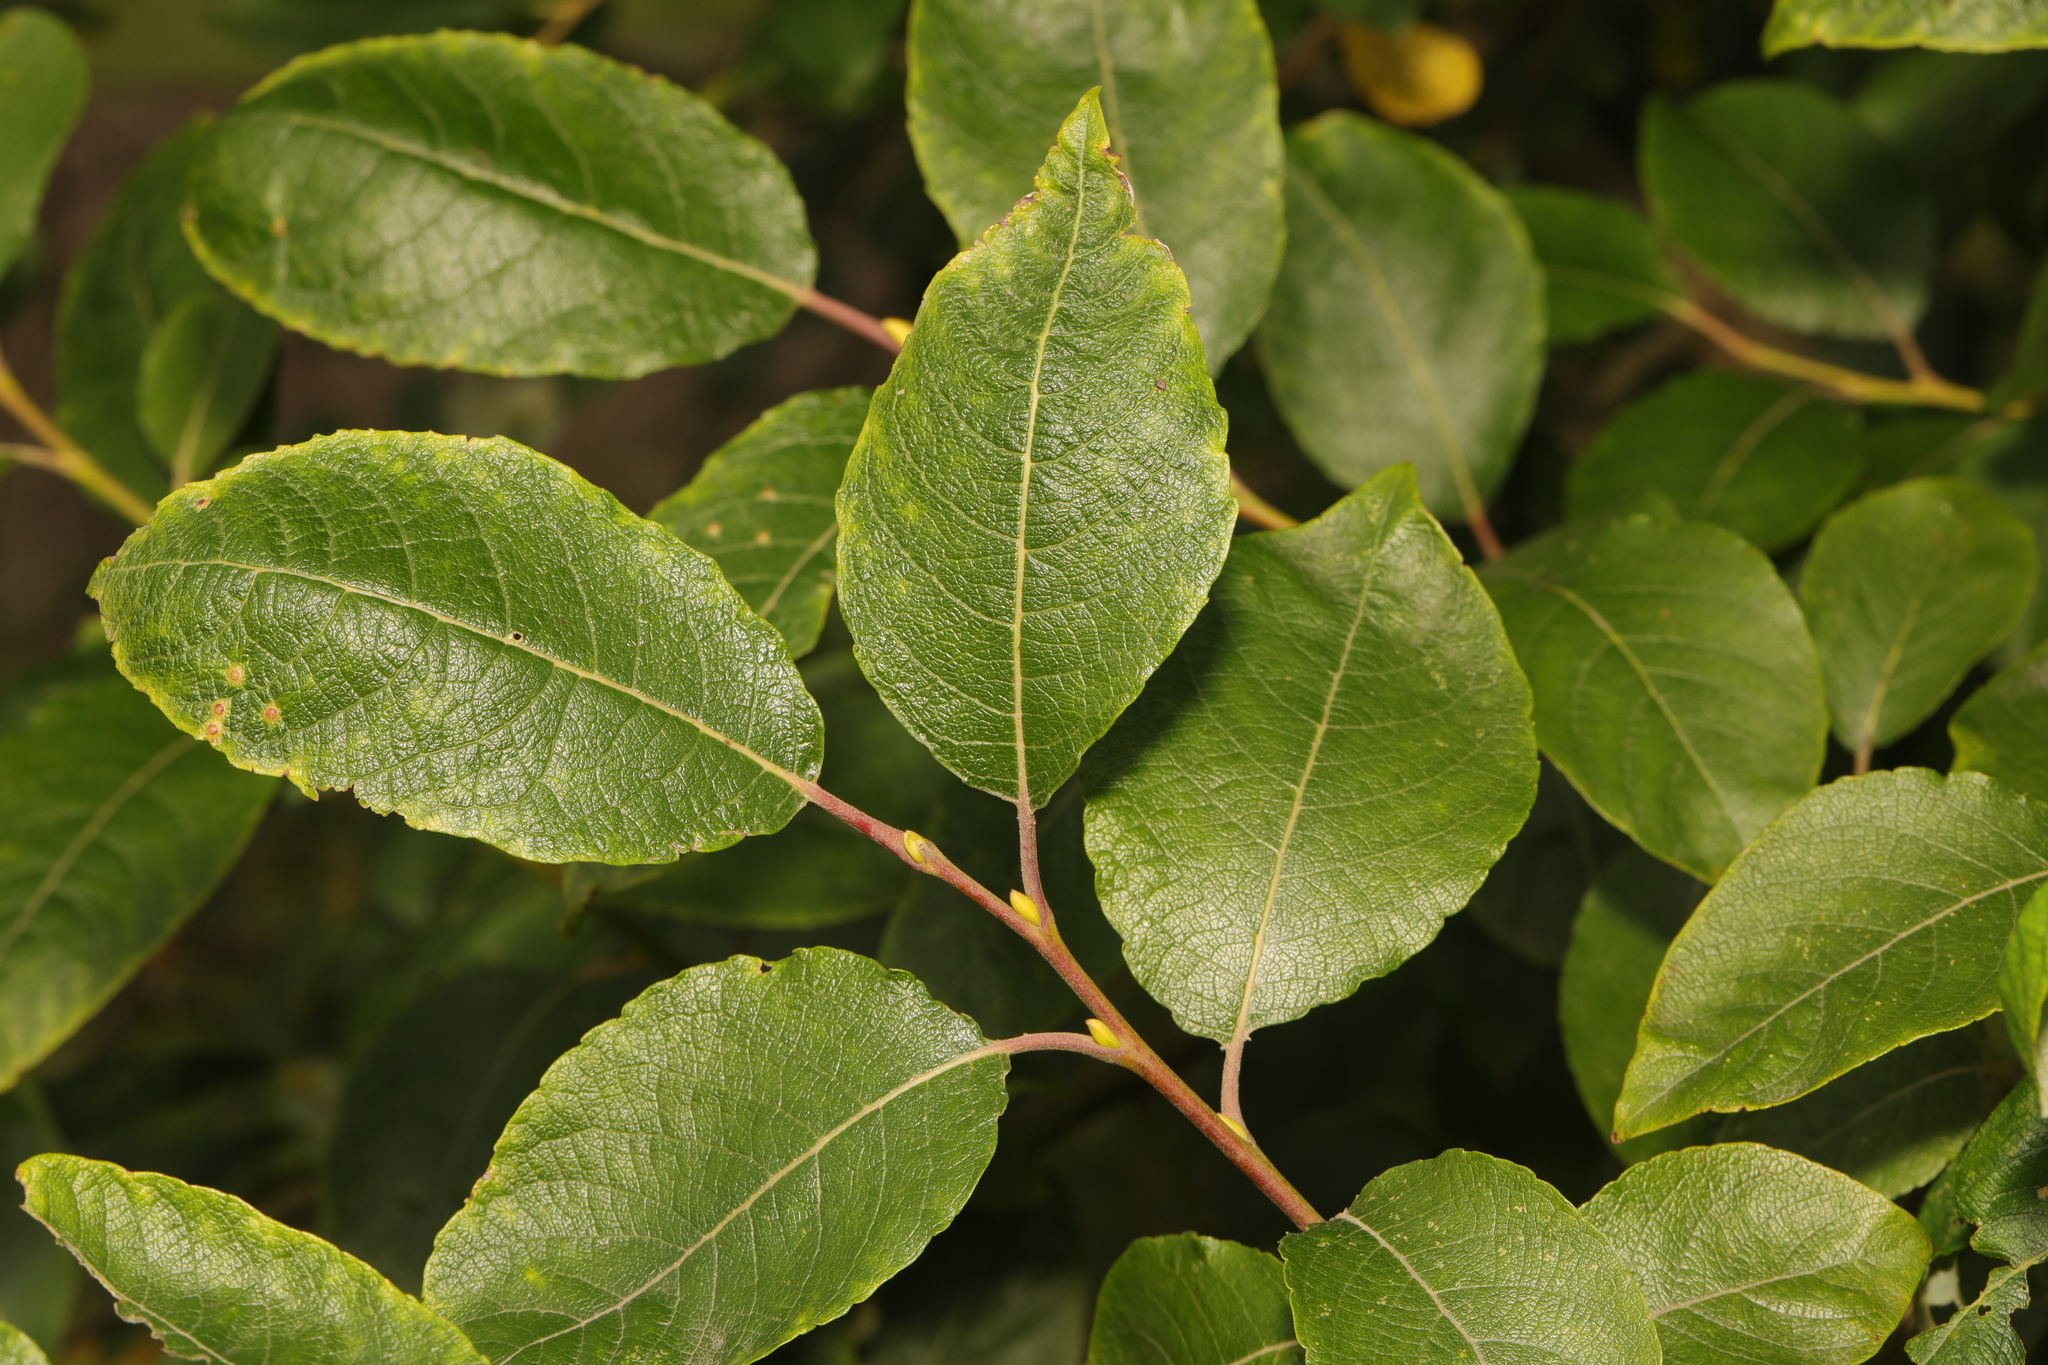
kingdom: Plantae
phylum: Tracheophyta
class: Magnoliopsida
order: Malpighiales
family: Salicaceae
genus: Salix
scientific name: Salix caprea
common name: Goat willow
